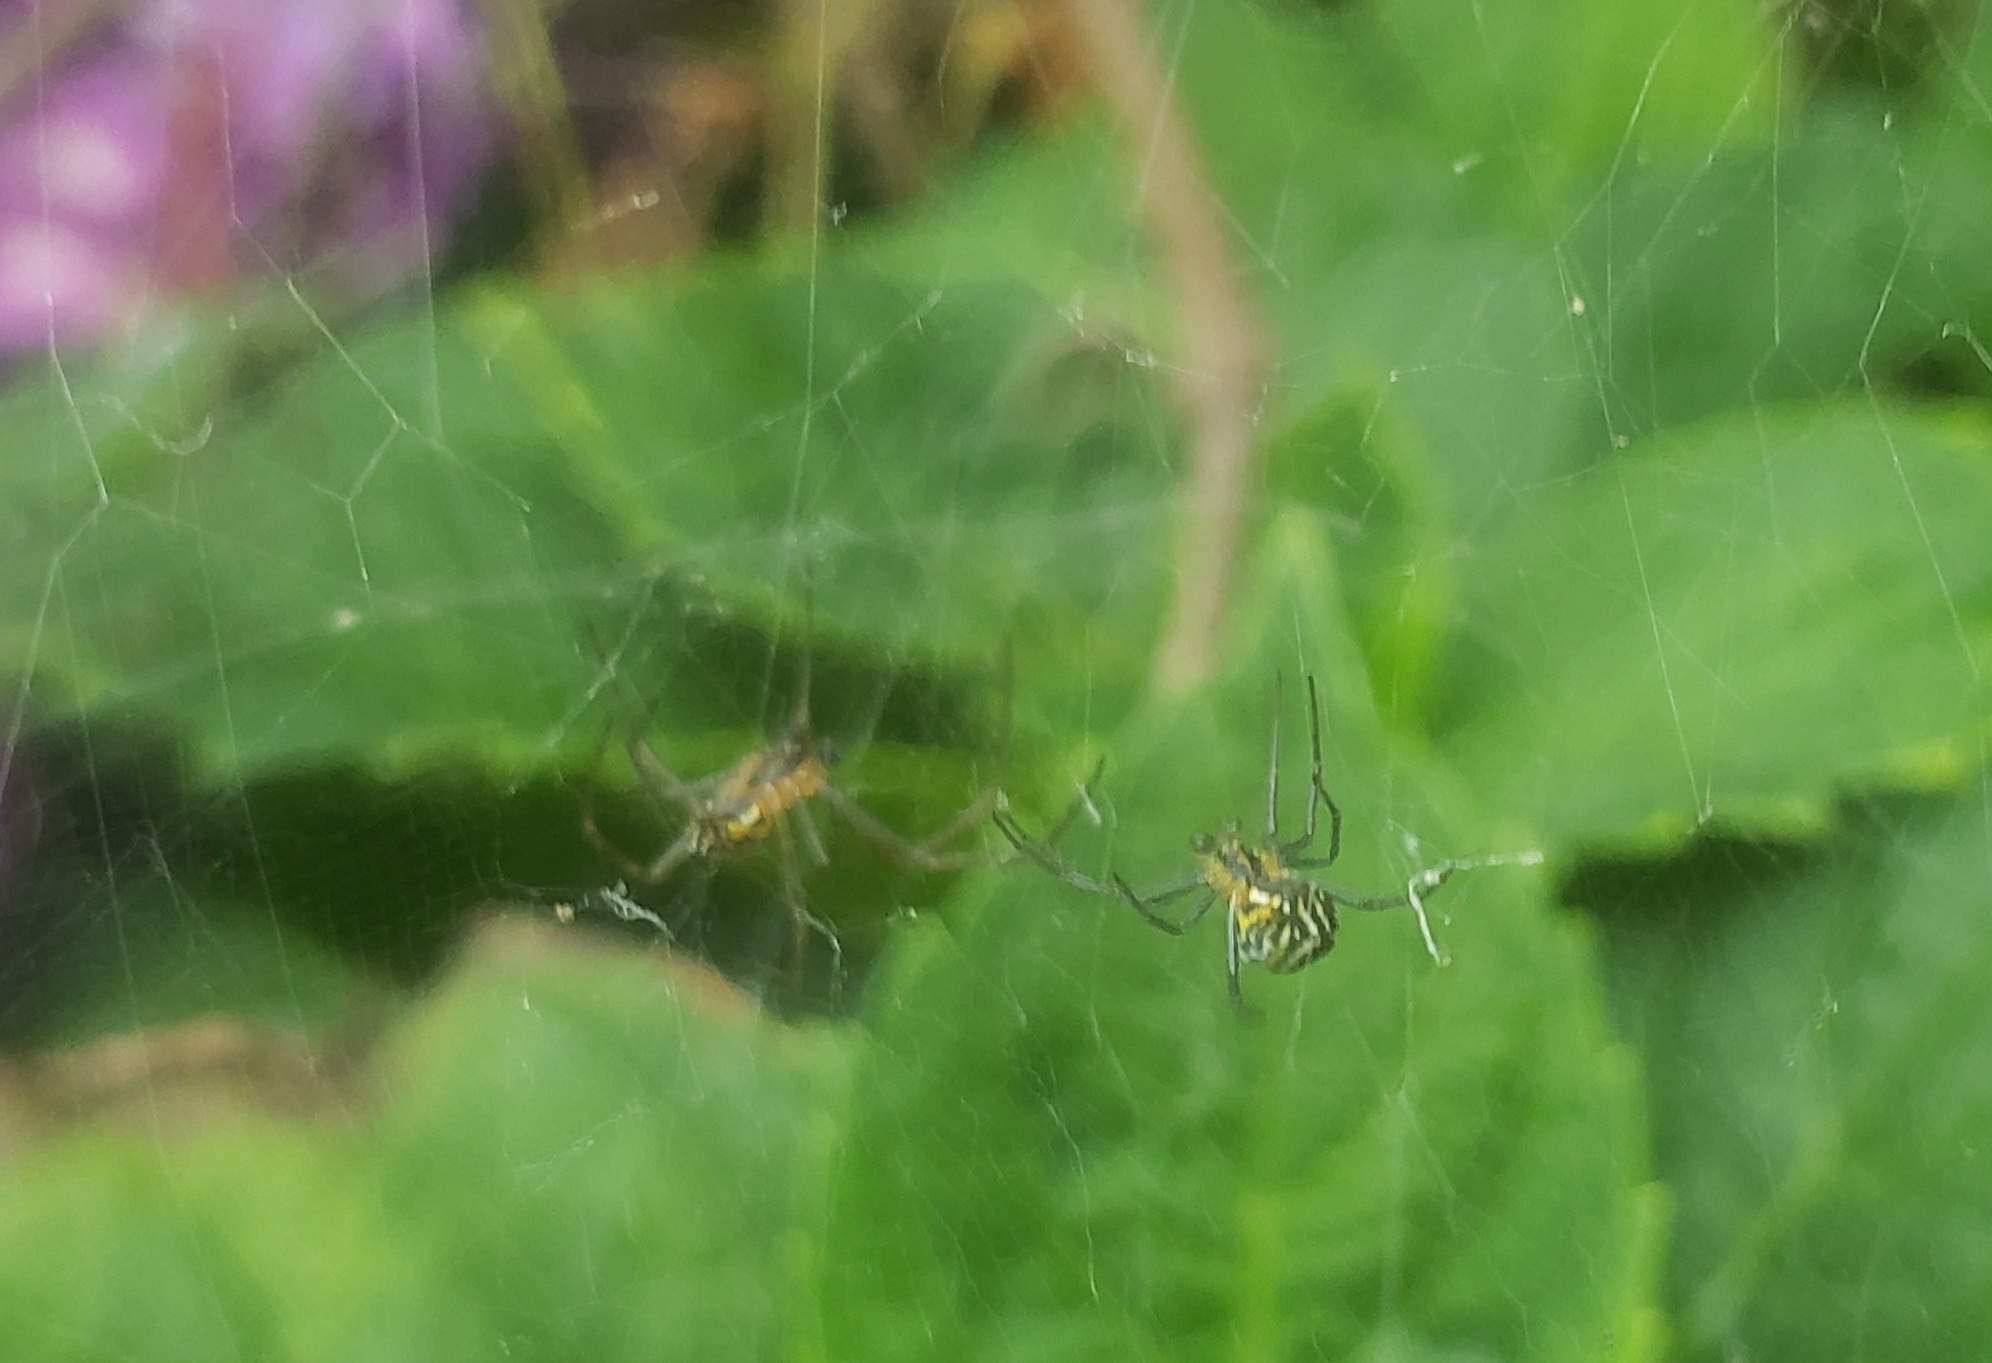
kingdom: Animalia
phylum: Arthropoda
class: Arachnida
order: Araneae
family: Araneidae
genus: Mecynogea
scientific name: Mecynogea lemniscata
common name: Orb weavers
